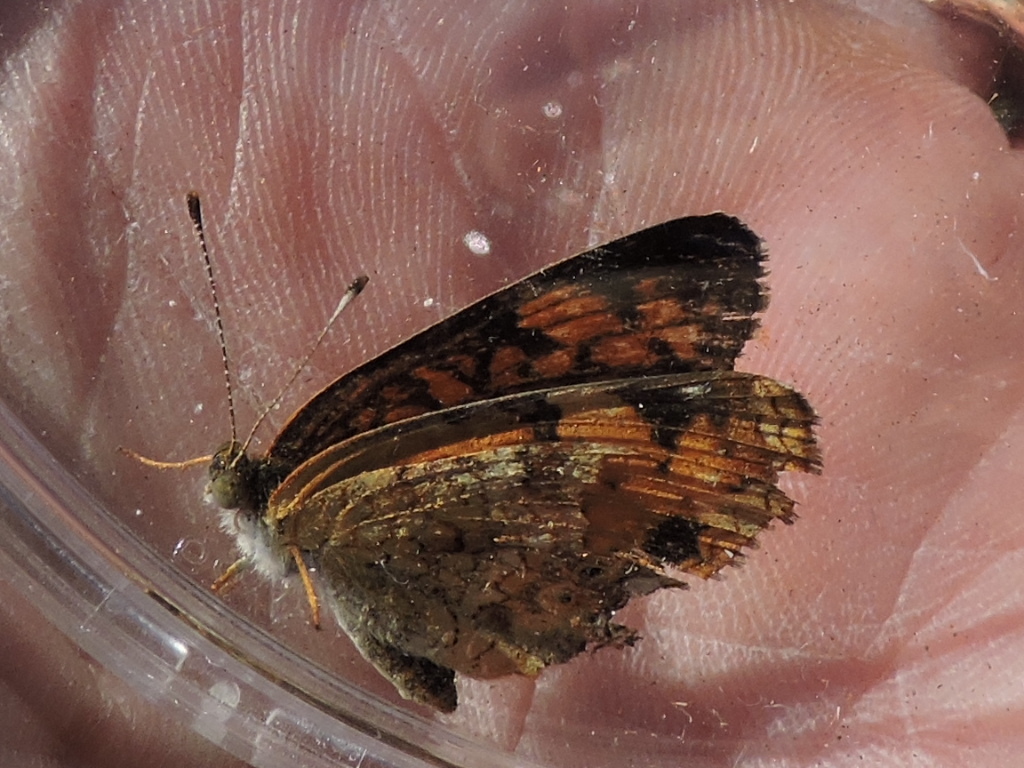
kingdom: Animalia
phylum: Arthropoda
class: Insecta
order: Lepidoptera
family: Nymphalidae
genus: Phyciodes
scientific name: Phyciodes tharos
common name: Pearl crescent
